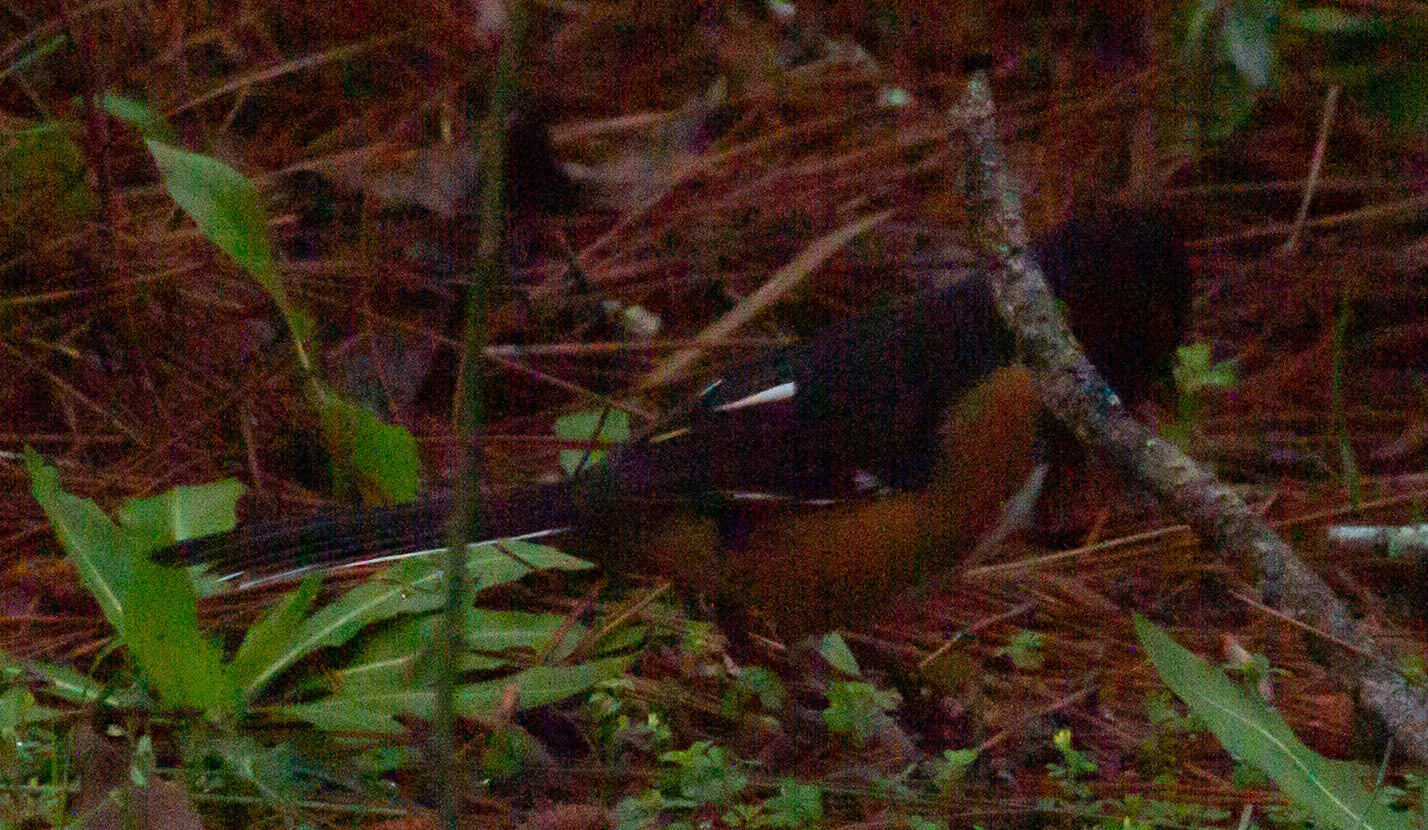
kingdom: Animalia
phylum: Chordata
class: Aves
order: Passeriformes
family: Passerellidae
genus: Pipilo
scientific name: Pipilo erythrophthalmus
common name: Eastern towhee
